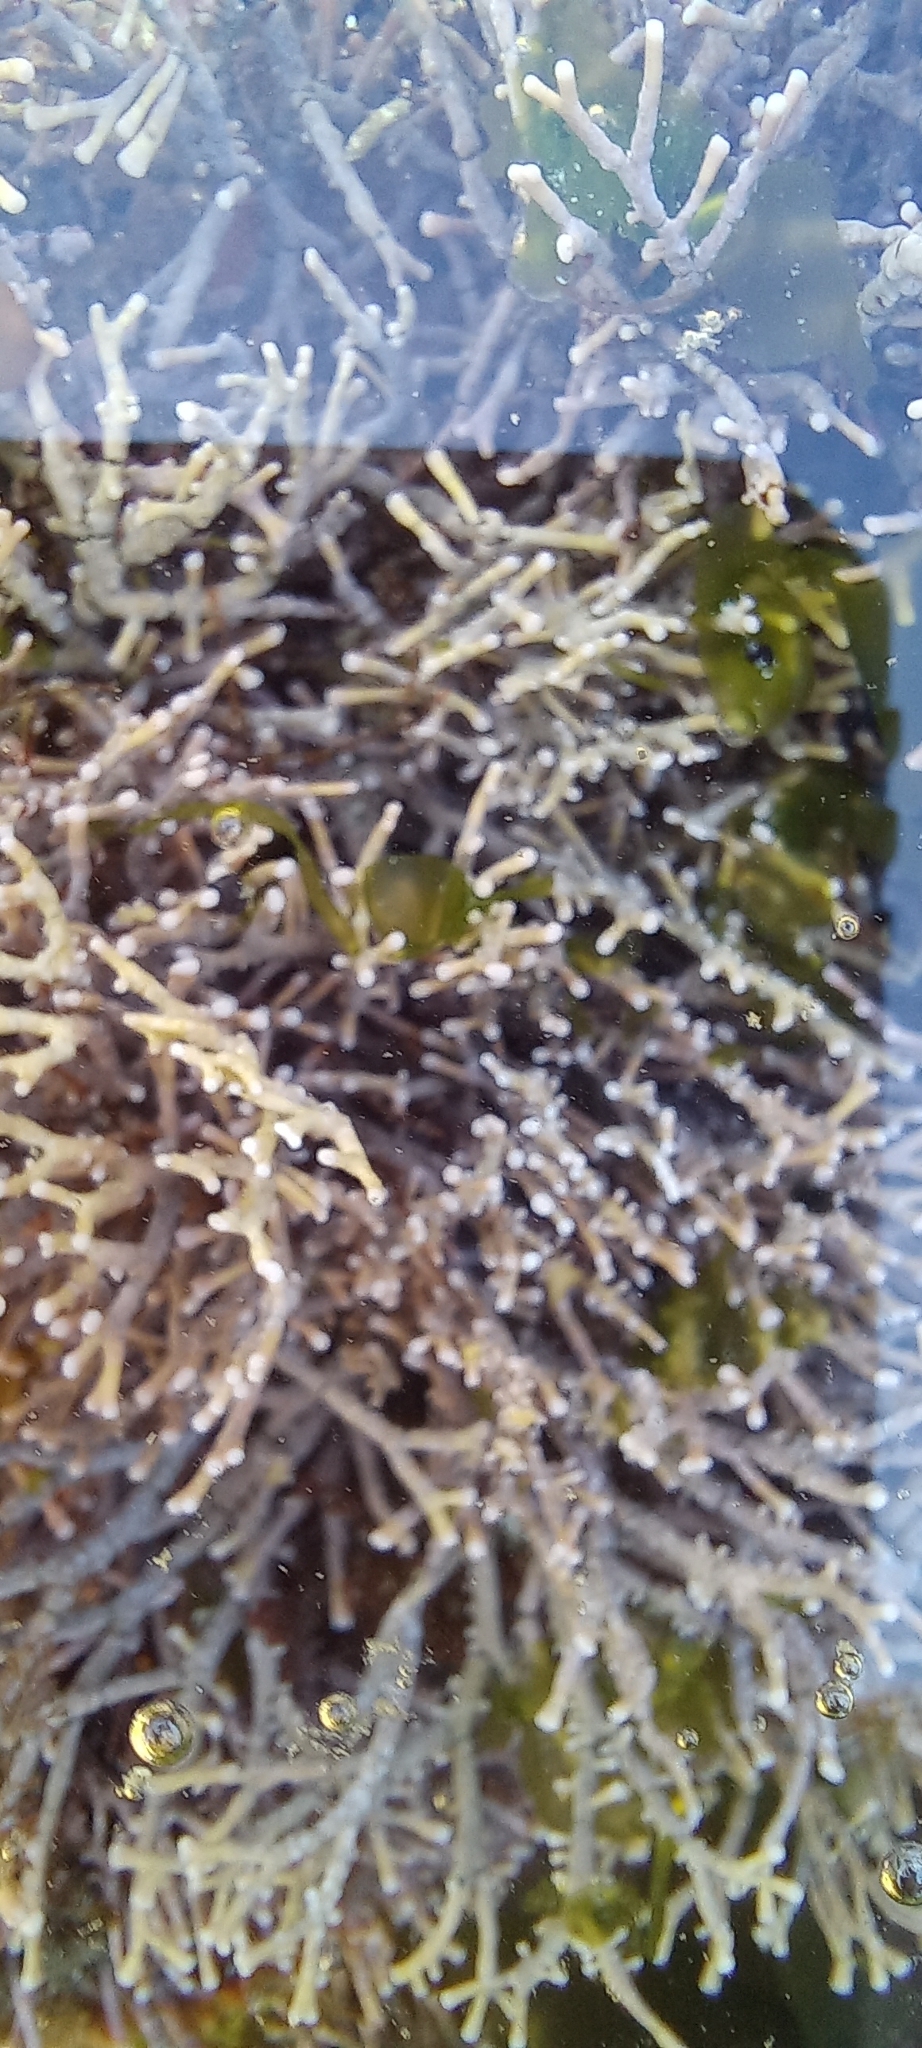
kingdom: Plantae
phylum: Rhodophyta
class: Florideophyceae
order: Corallinales
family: Lithophyllaceae
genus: Amphiroa
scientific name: Amphiroa
